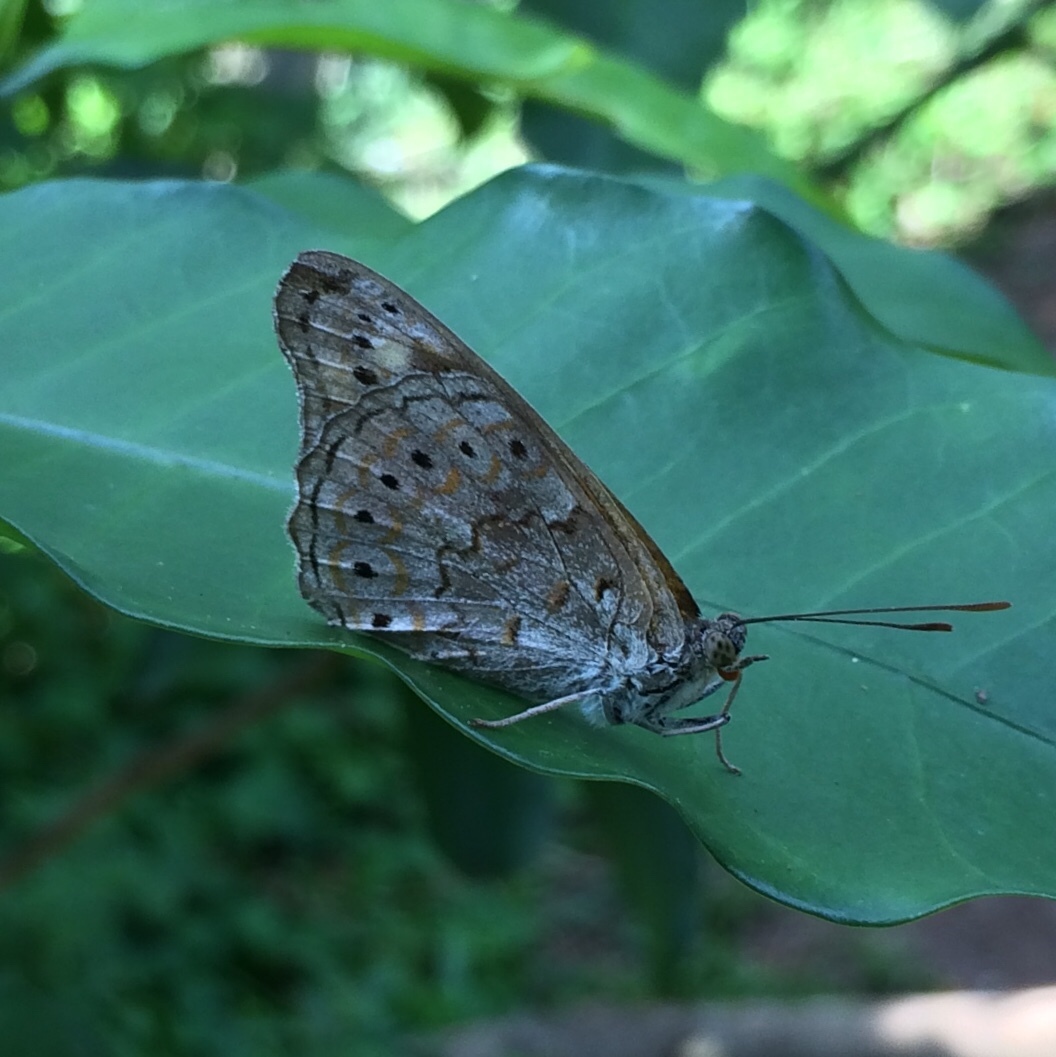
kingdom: Animalia
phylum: Arthropoda
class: Insecta
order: Lepidoptera
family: Nymphalidae
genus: Asterope
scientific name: Asterope boisduvali
